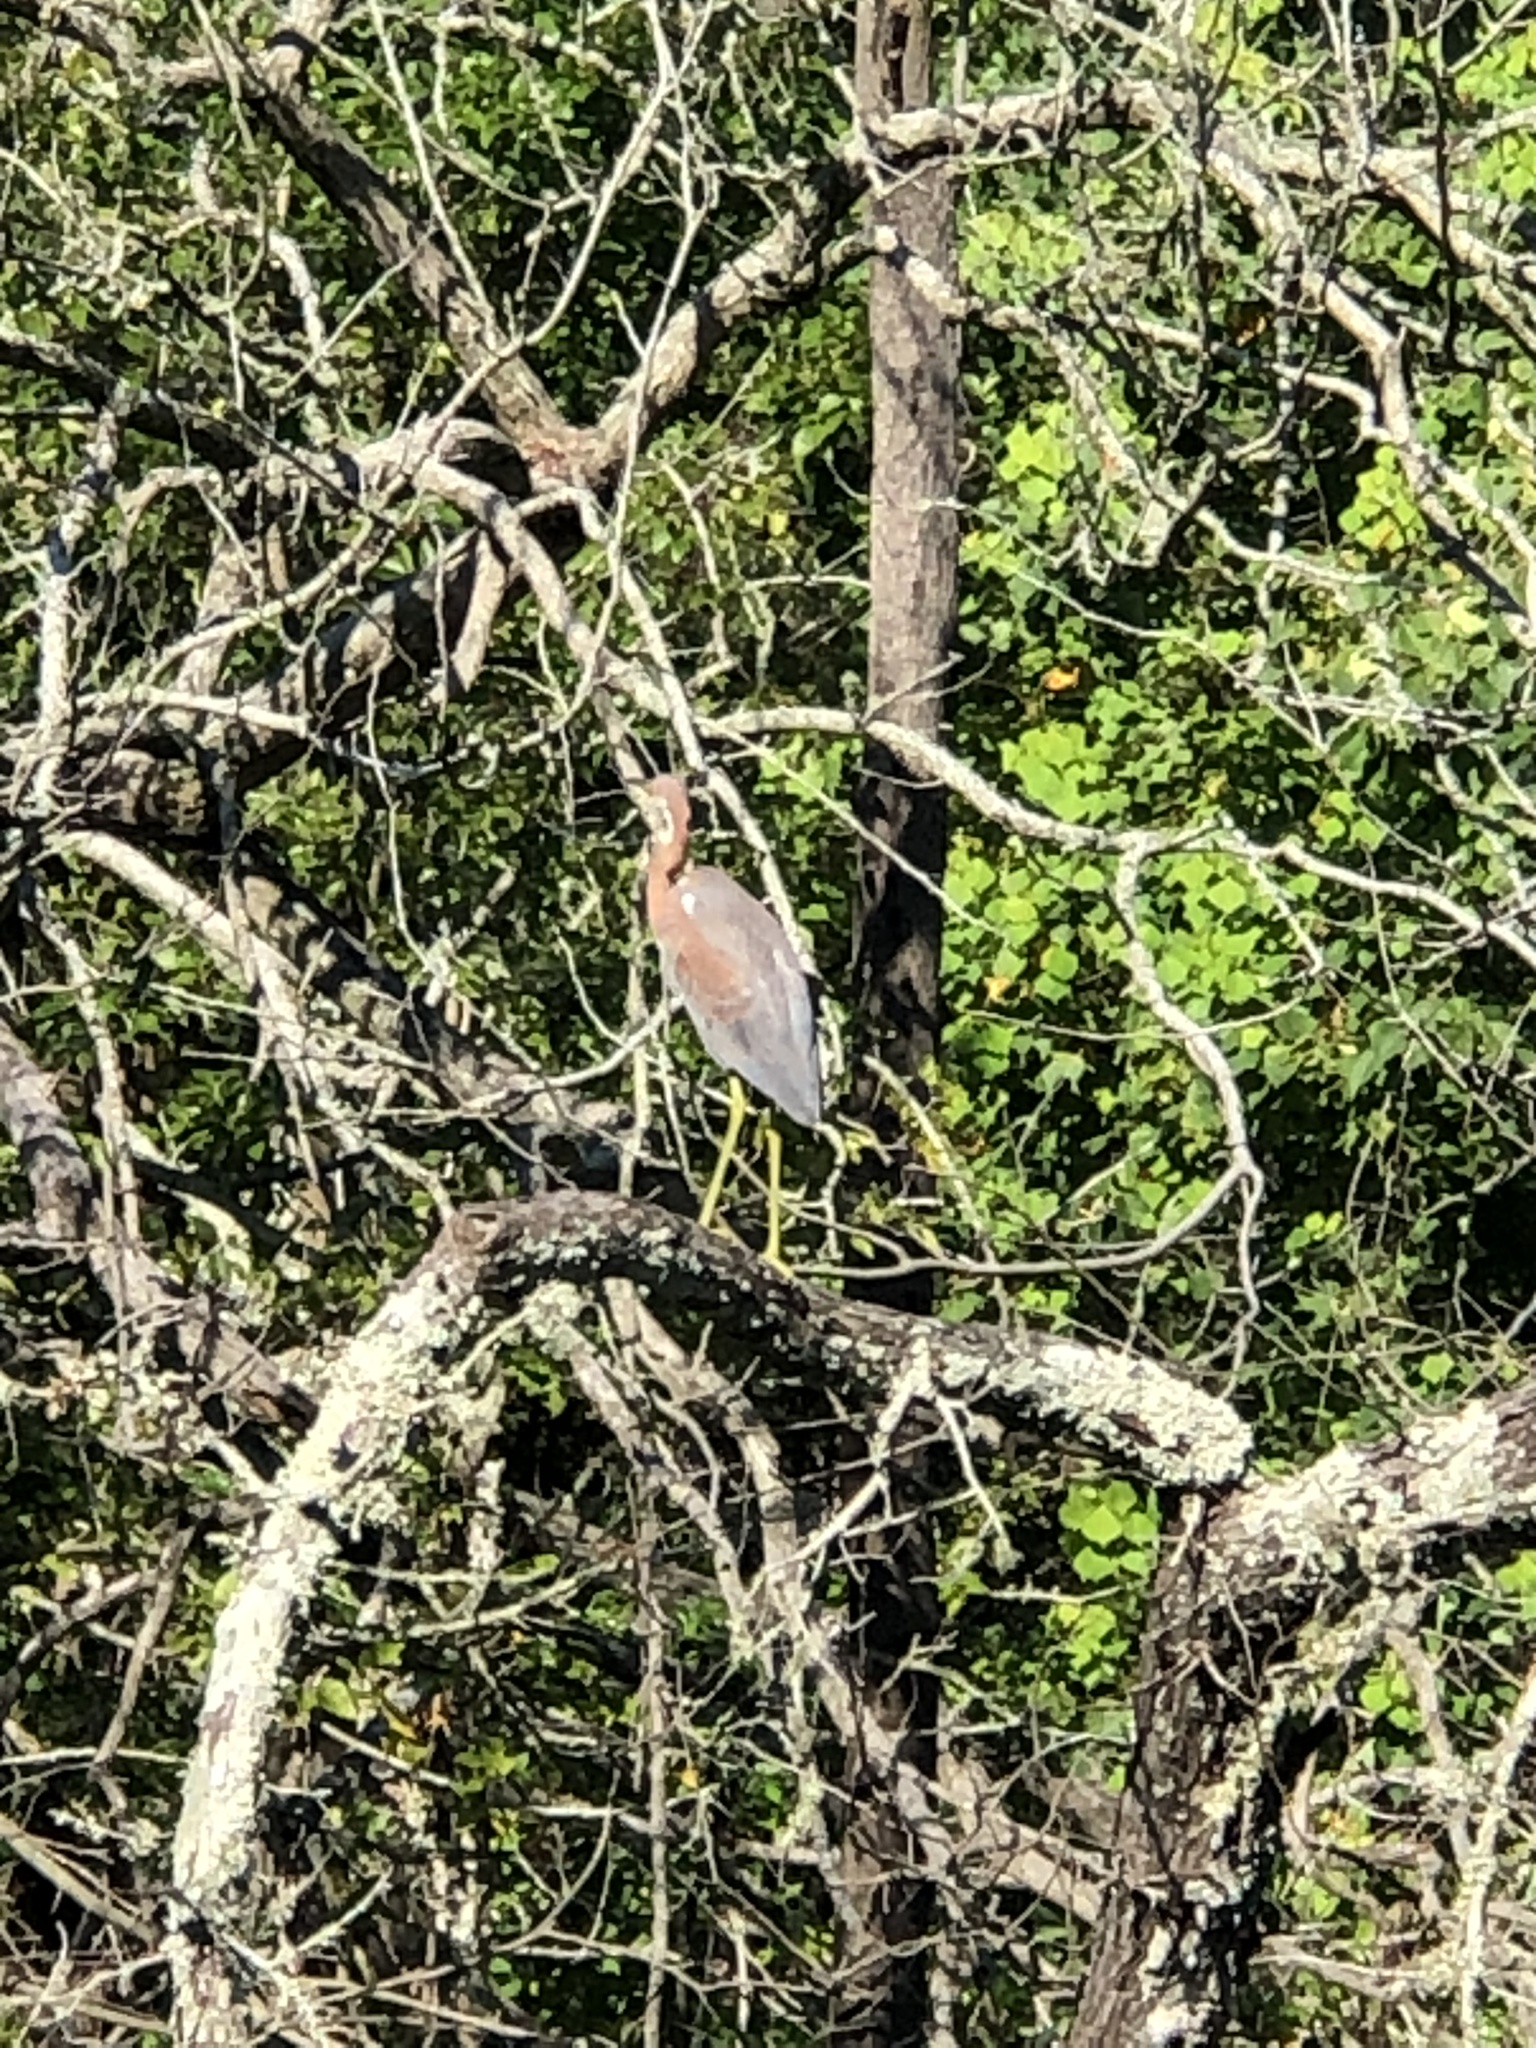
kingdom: Animalia
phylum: Chordata
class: Aves
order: Pelecaniformes
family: Ardeidae
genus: Egretta
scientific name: Egretta tricolor
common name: Tricolored heron
